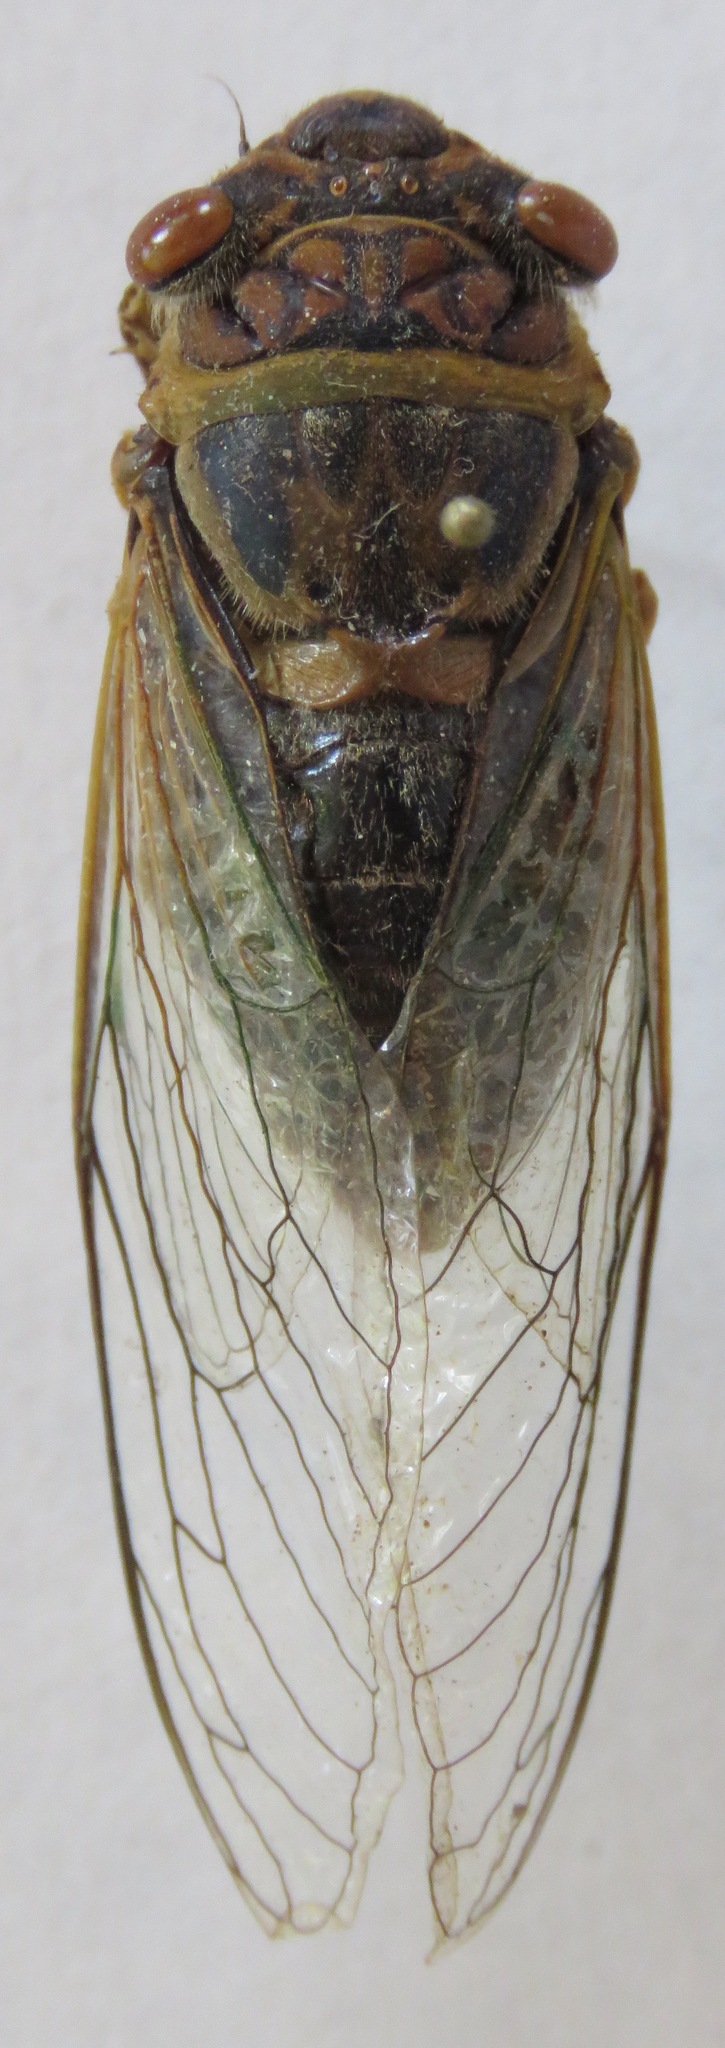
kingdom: Animalia
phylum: Arthropoda
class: Insecta
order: Hemiptera
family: Cicadidae
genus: Diceroprocta
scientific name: Diceroprocta ruatana
